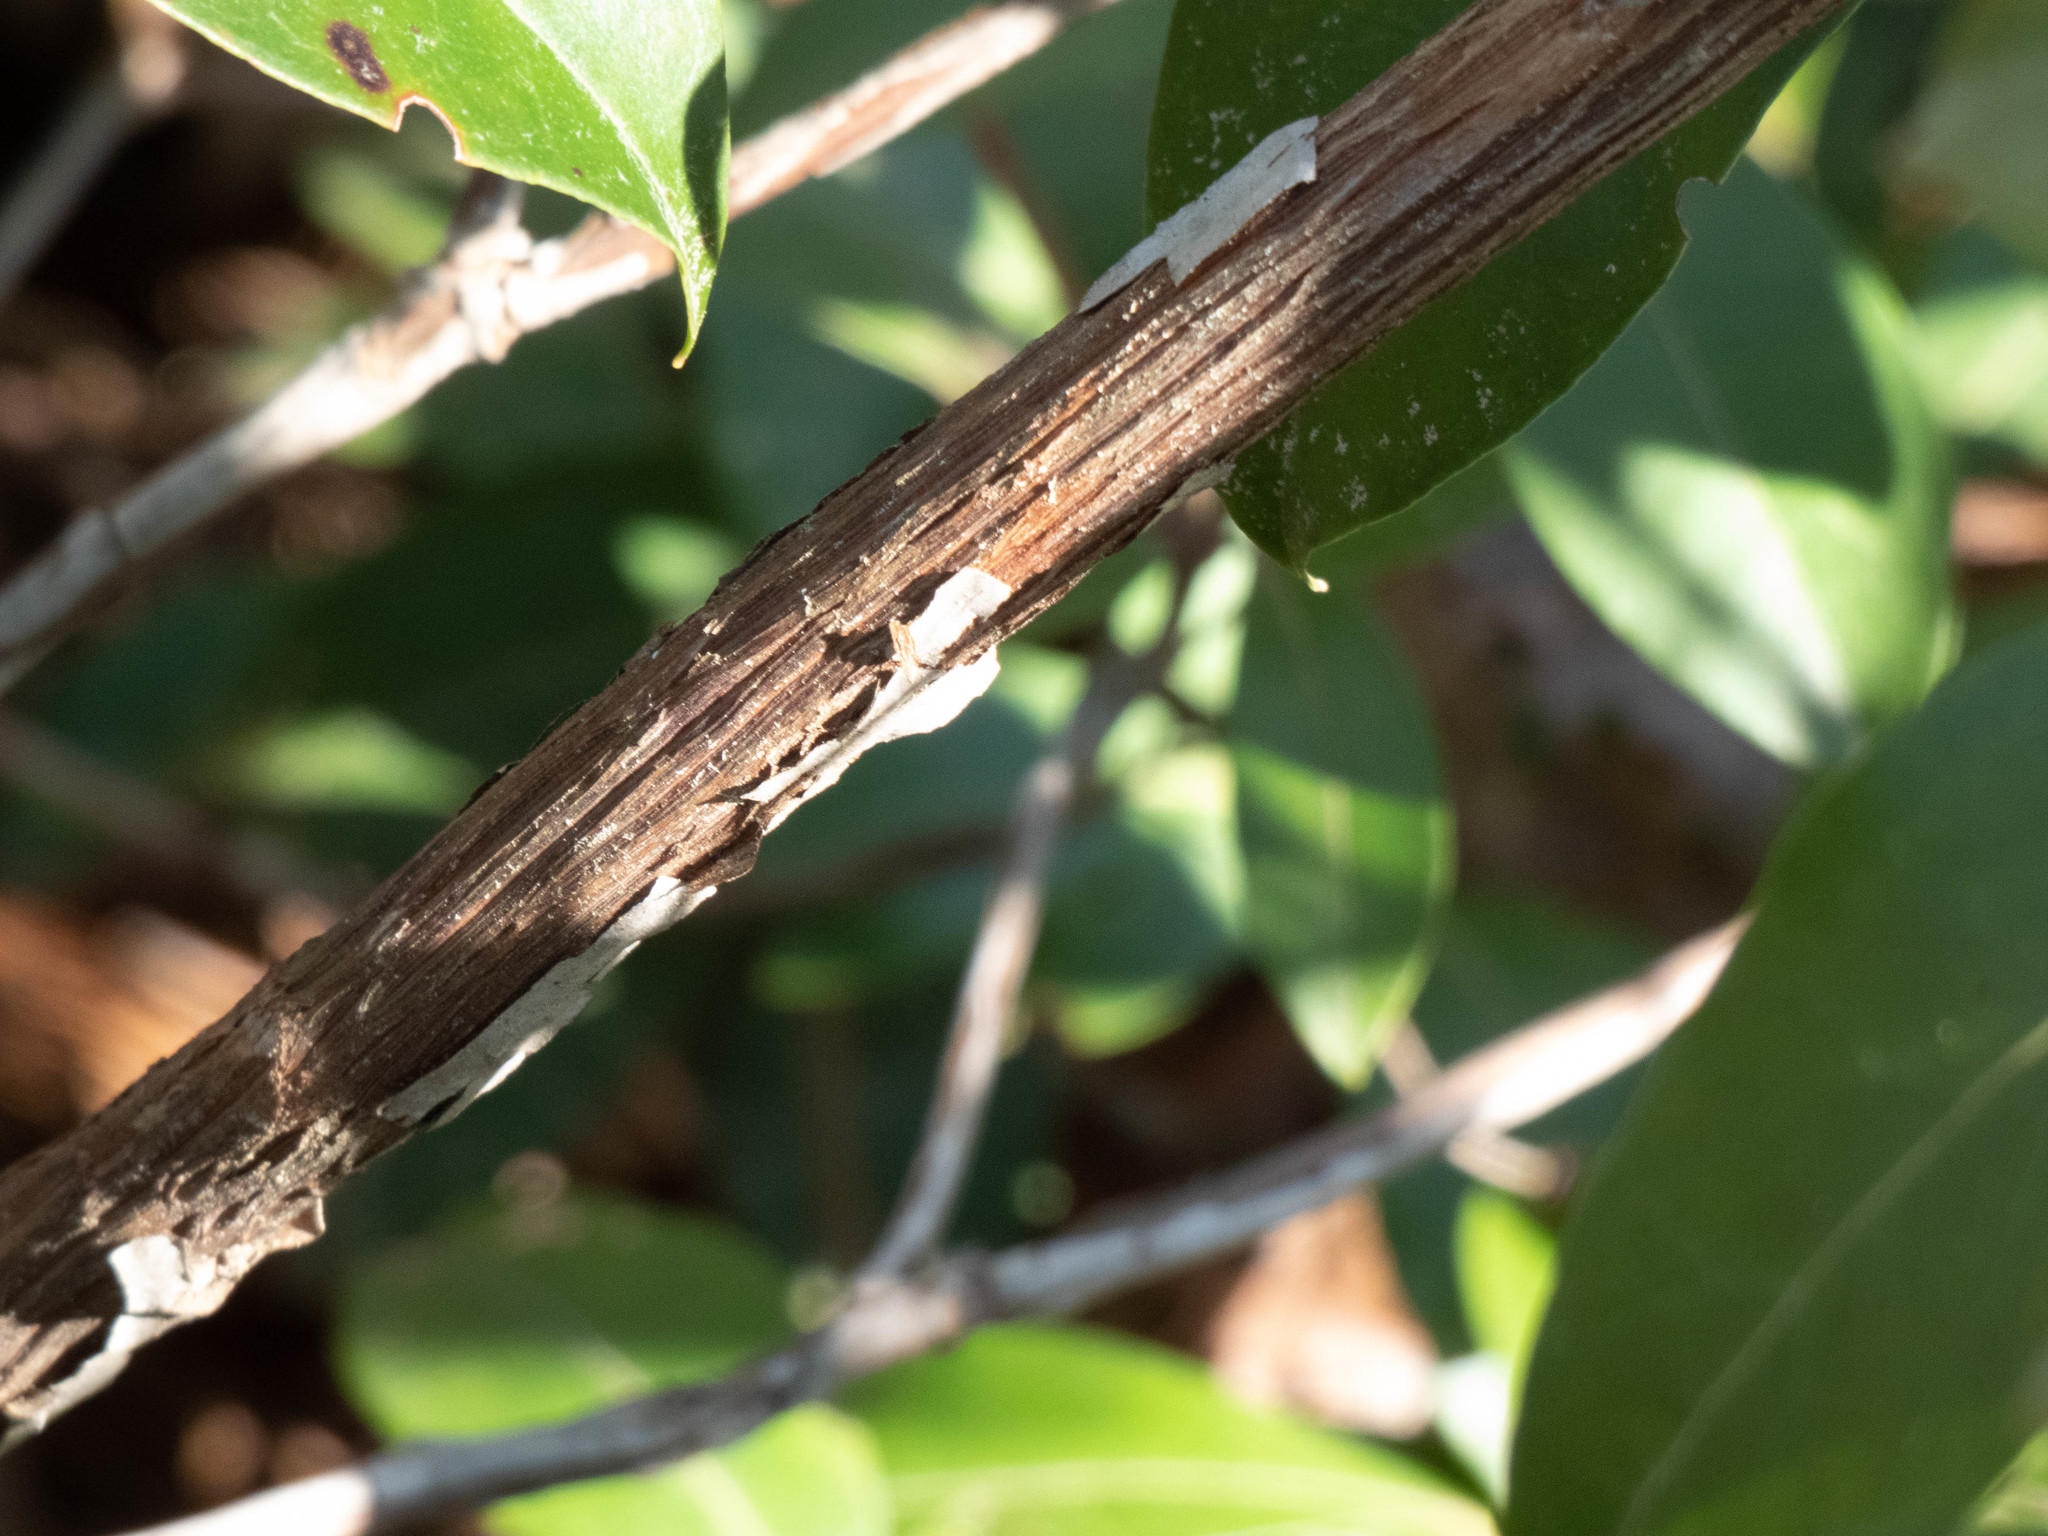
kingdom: Plantae
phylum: Tracheophyta
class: Magnoliopsida
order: Ericales
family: Ericaceae
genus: Kalmia
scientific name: Kalmia latifolia
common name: Mountain-laurel
